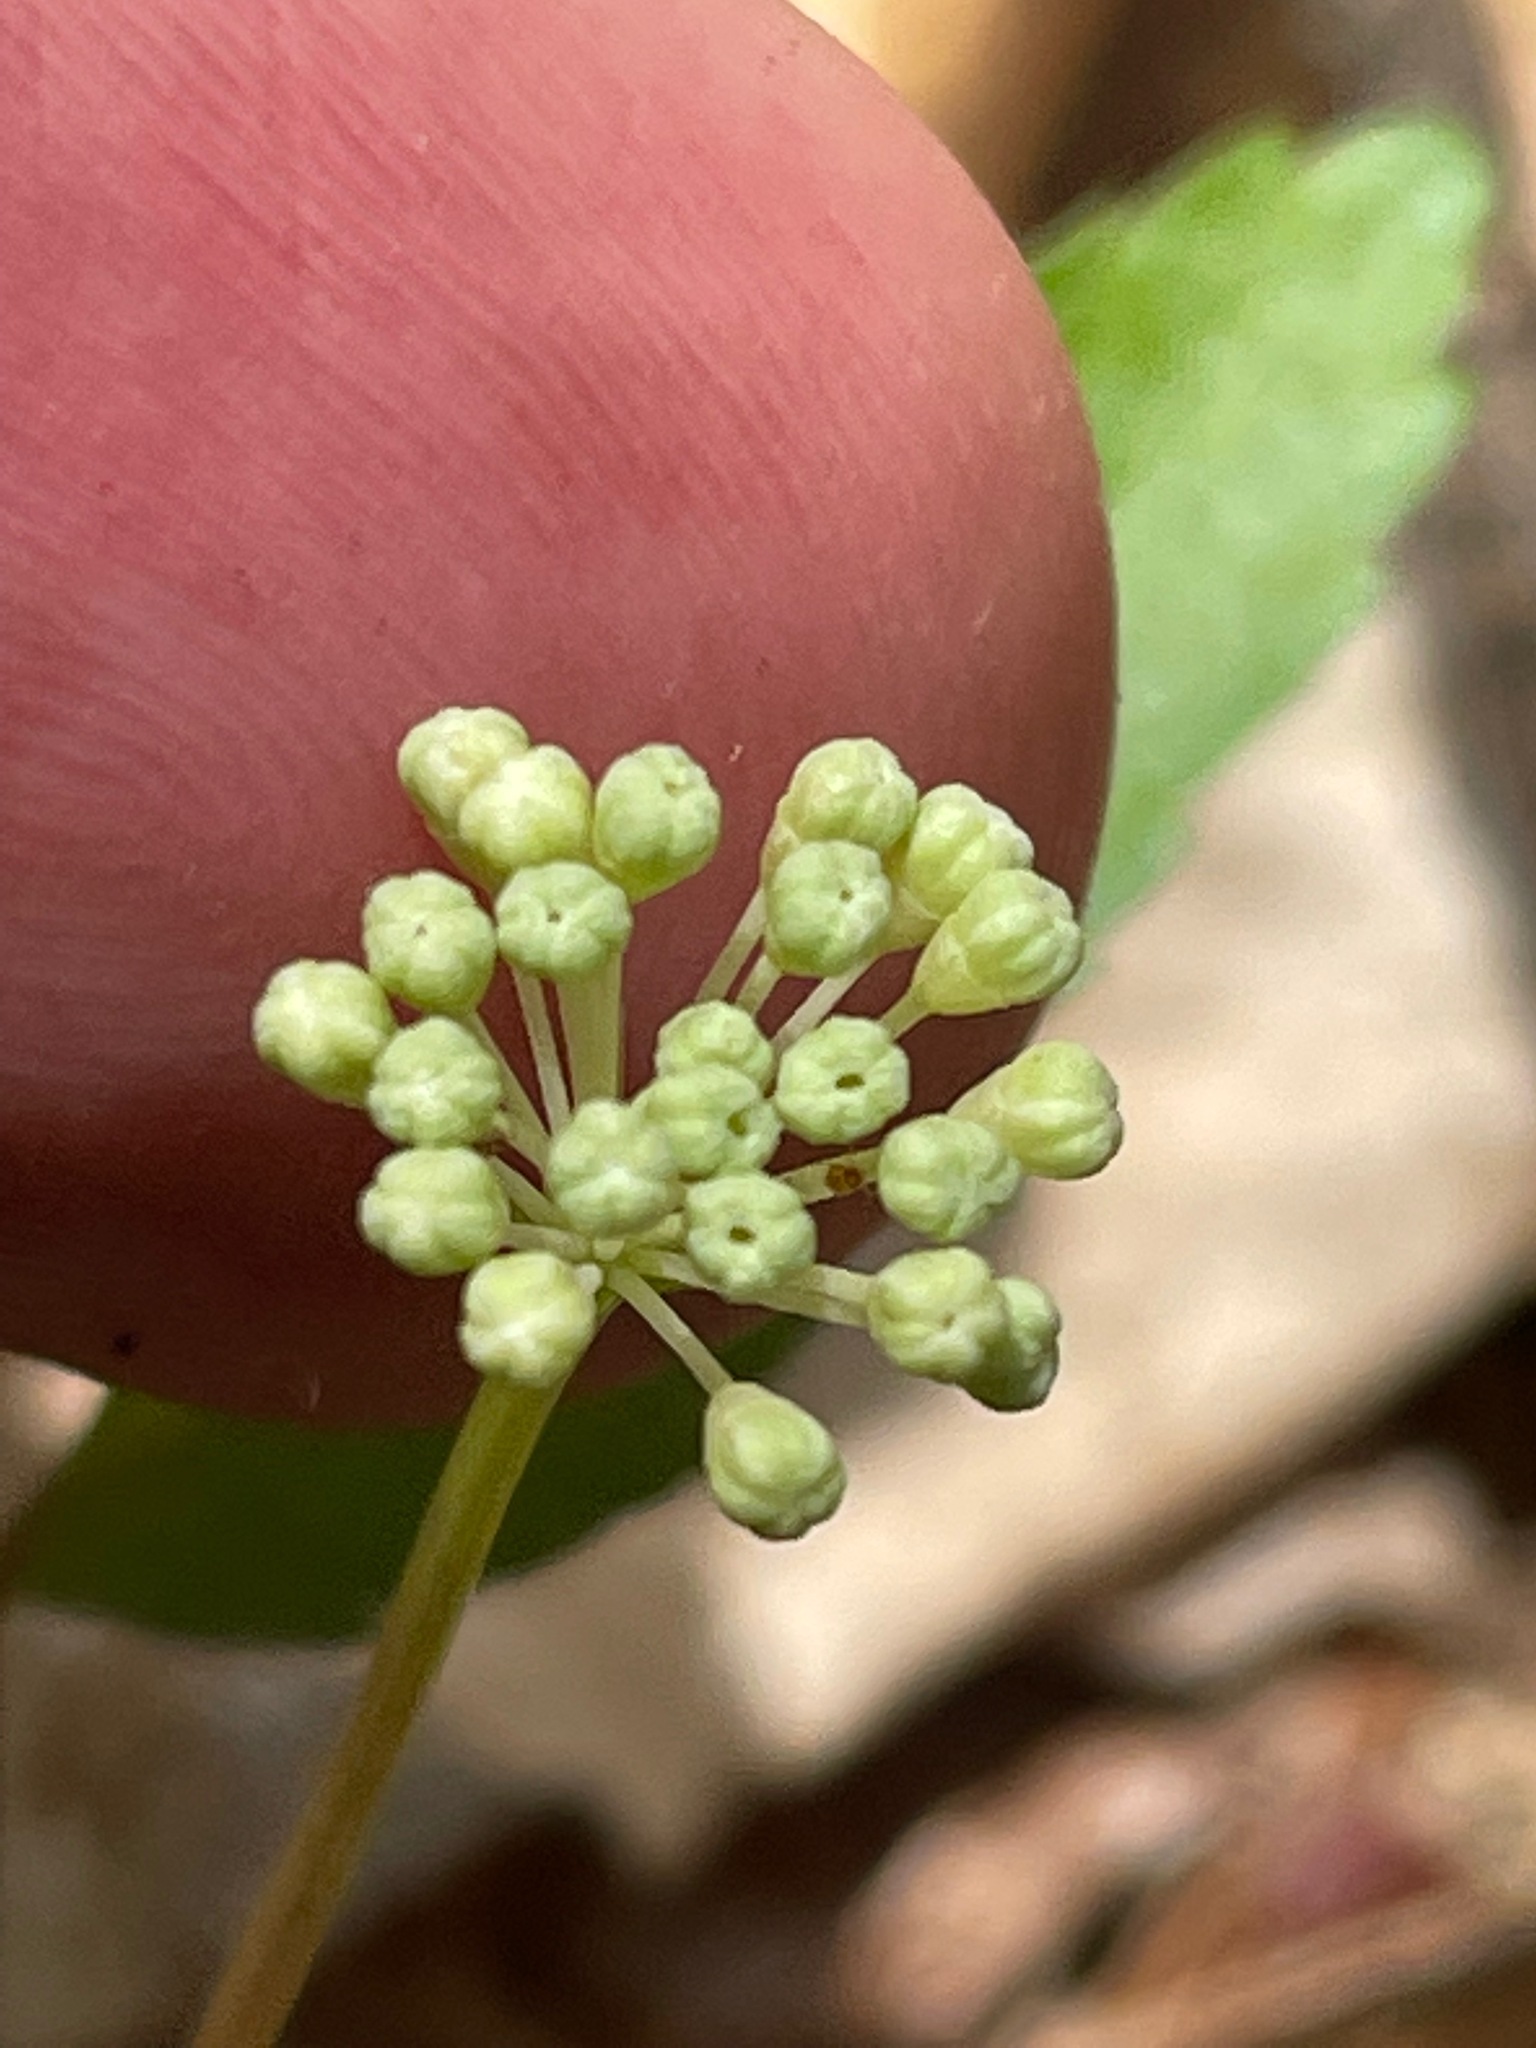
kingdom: Plantae
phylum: Tracheophyta
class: Magnoliopsida
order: Apiales
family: Araliaceae
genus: Panax
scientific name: Panax trifolius
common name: Dwarf ginseng
